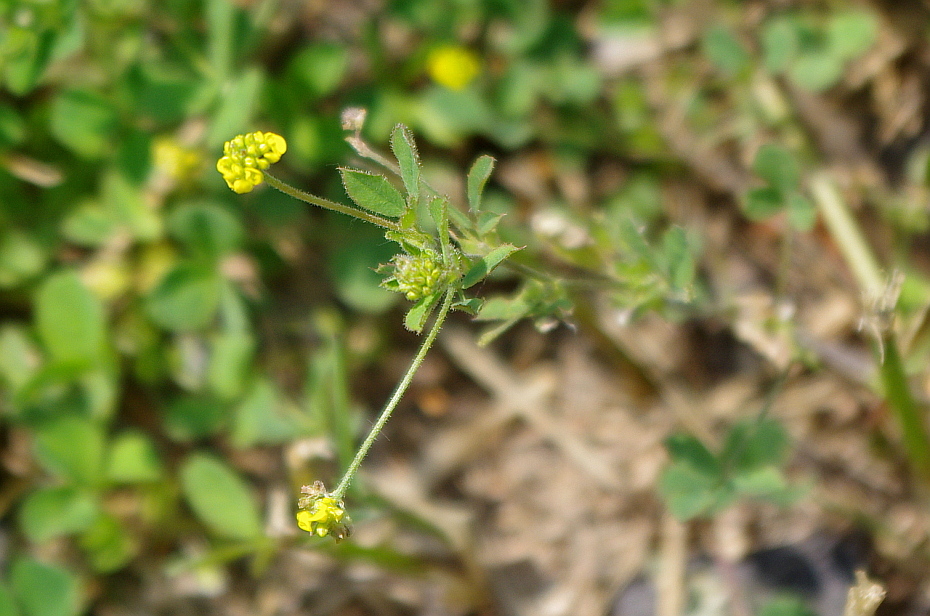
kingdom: Plantae
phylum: Tracheophyta
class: Magnoliopsida
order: Fabales
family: Fabaceae
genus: Medicago
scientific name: Medicago lupulina
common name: Black medick
